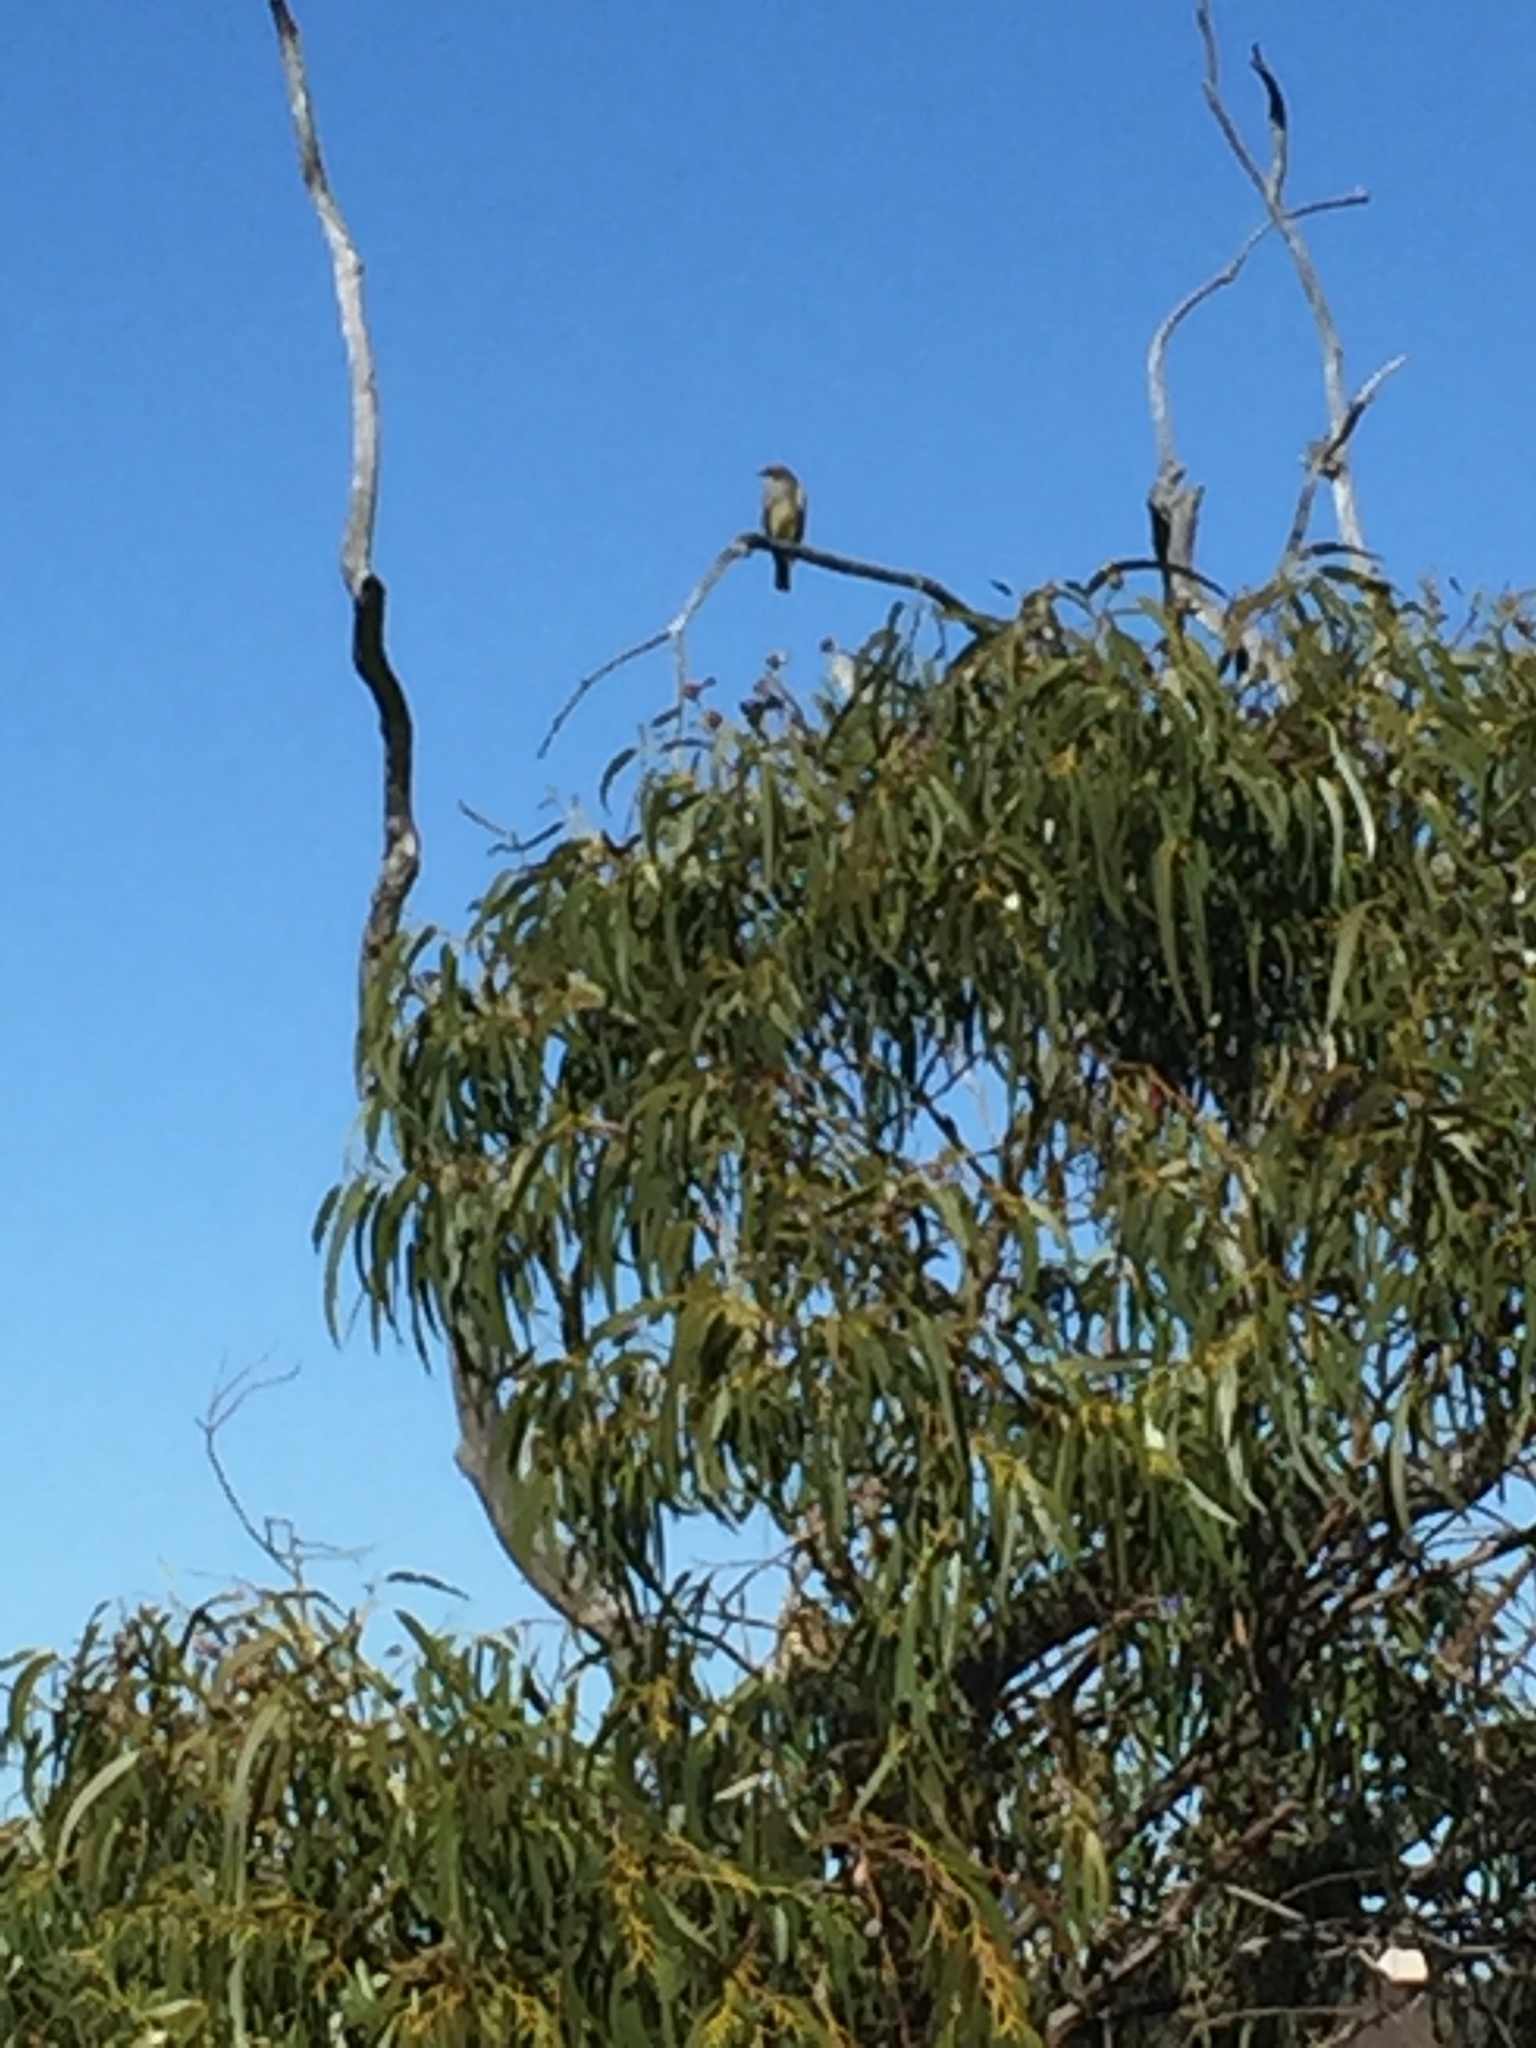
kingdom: Animalia
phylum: Chordata
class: Aves
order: Passeriformes
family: Tyrannidae
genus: Tyrannus
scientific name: Tyrannus vociferans
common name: Cassin's kingbird
